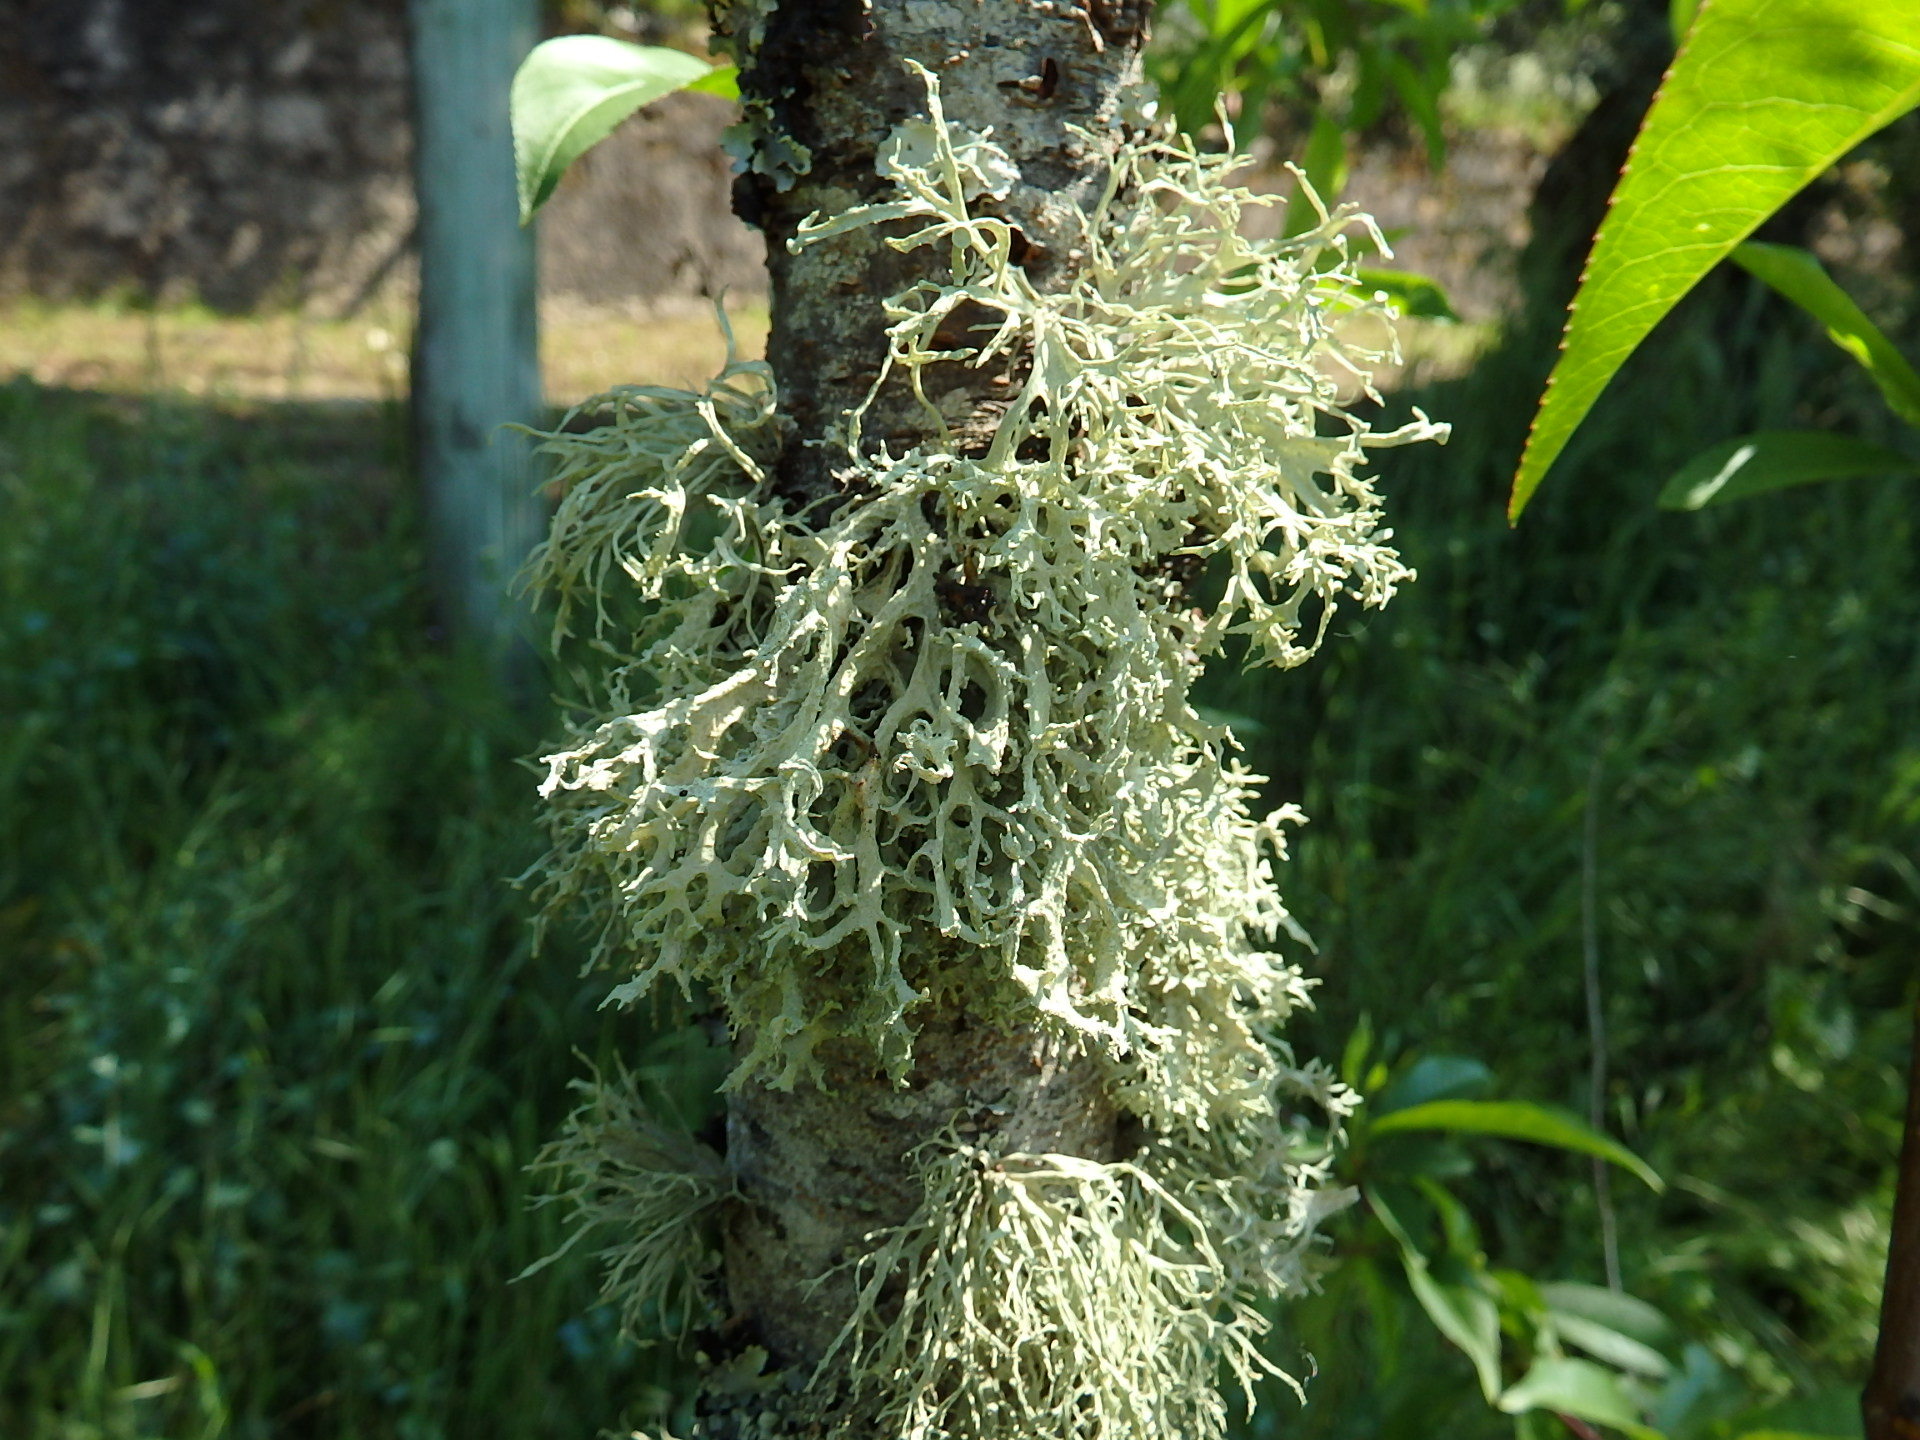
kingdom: Fungi
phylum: Ascomycota
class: Lecanoromycetes
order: Lecanorales
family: Parmeliaceae
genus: Evernia
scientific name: Evernia prunastri
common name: Oak moss
